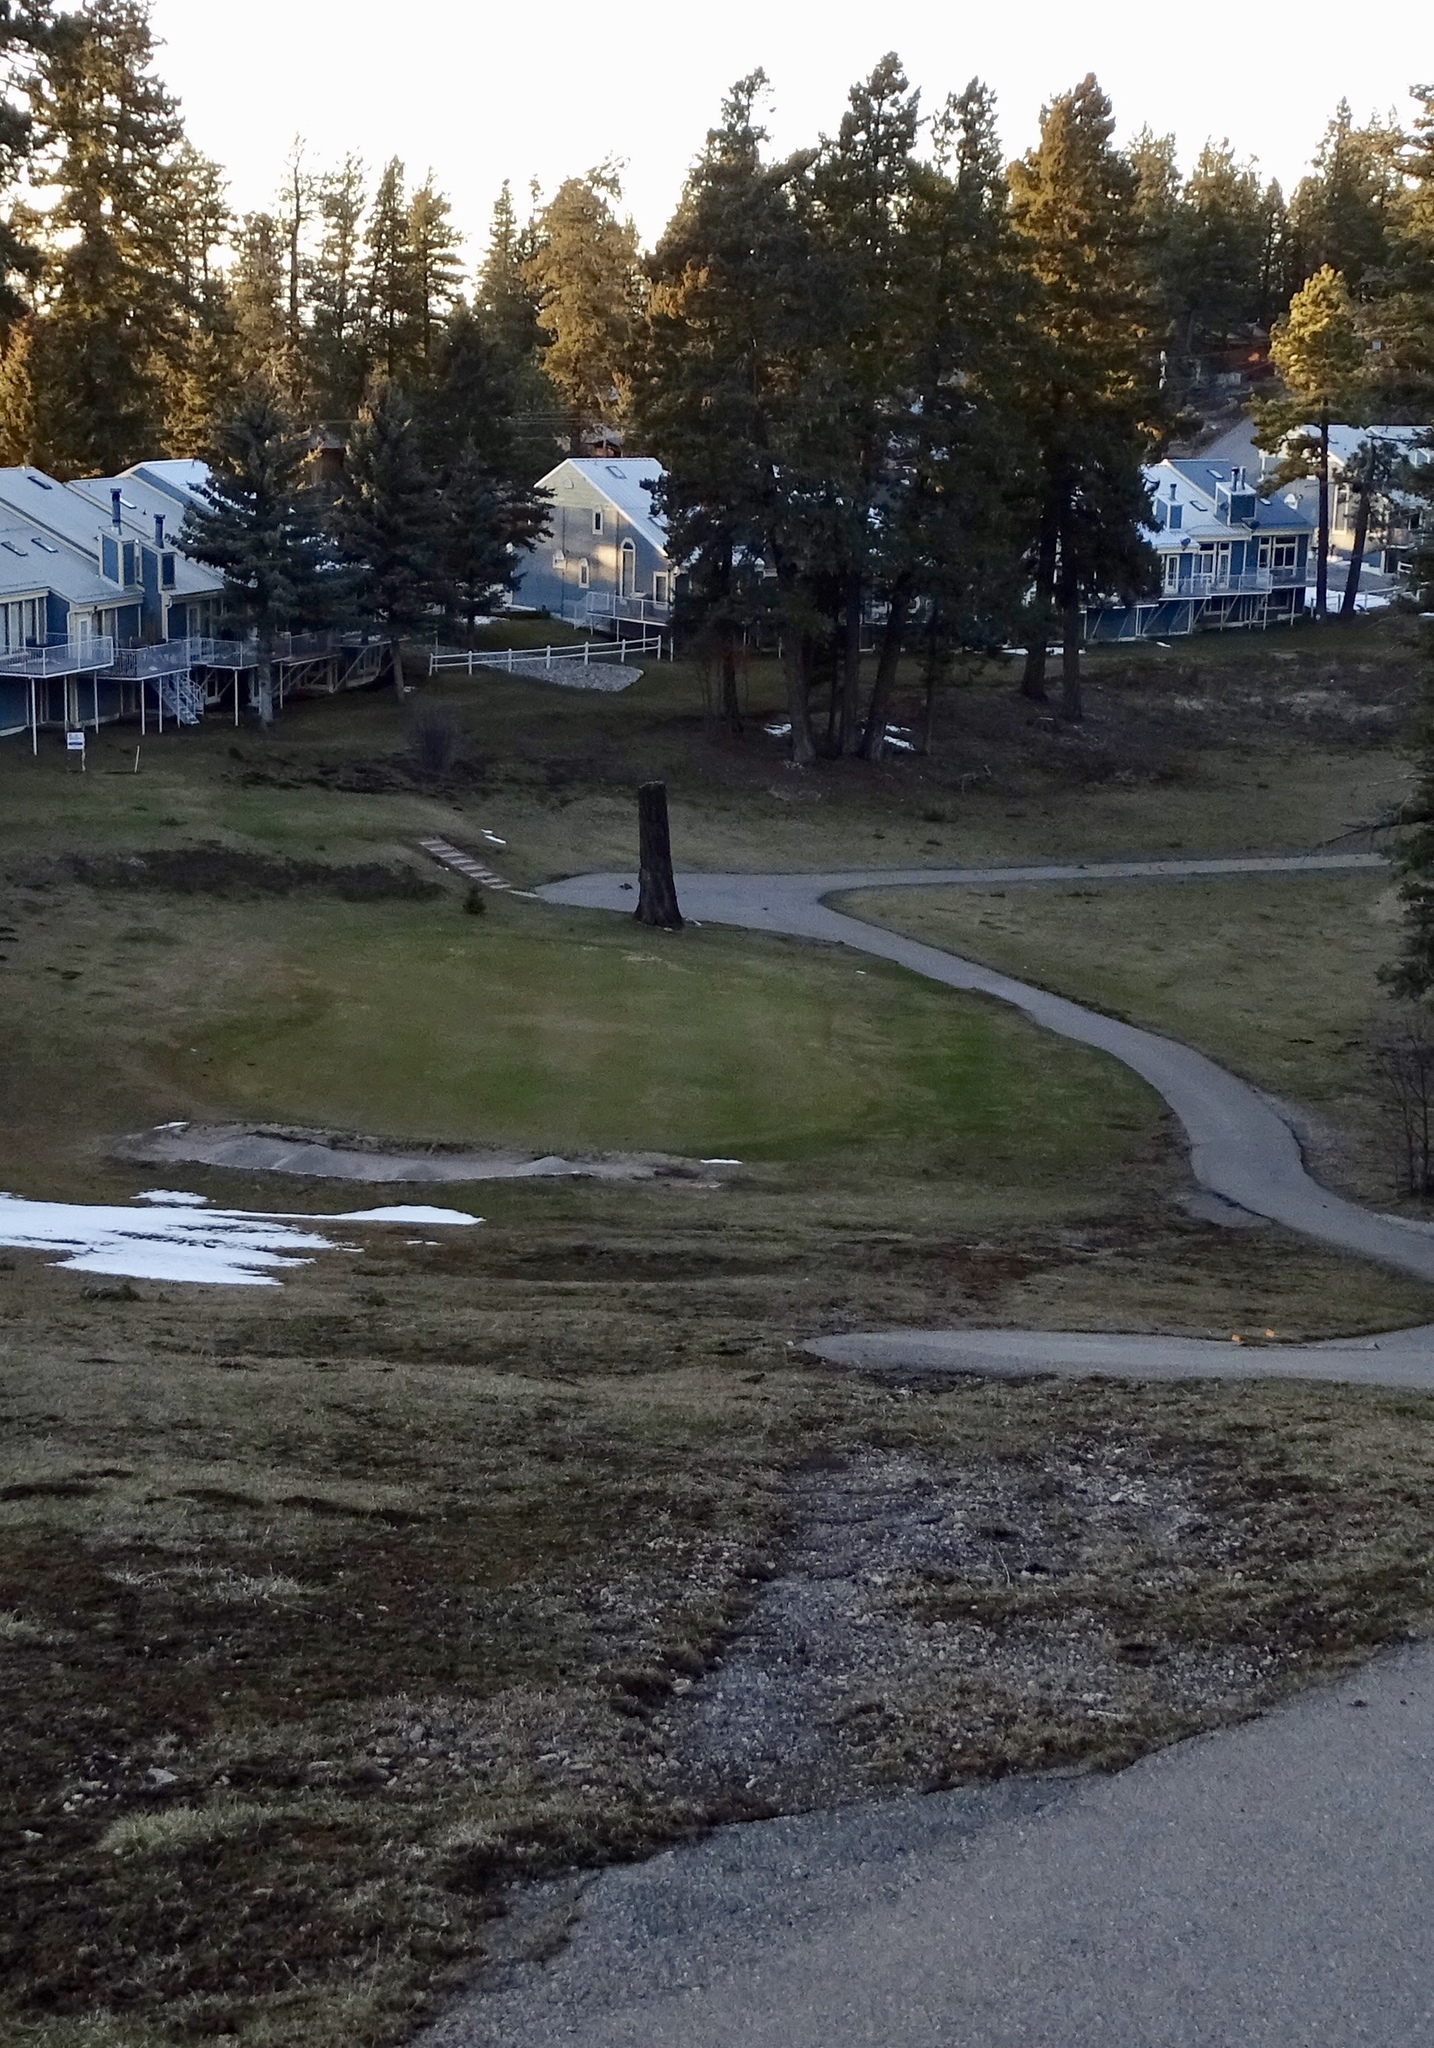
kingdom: Animalia
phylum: Chordata
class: Aves
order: Passeriformes
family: Turdidae
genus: Turdus
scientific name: Turdus migratorius
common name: American robin
